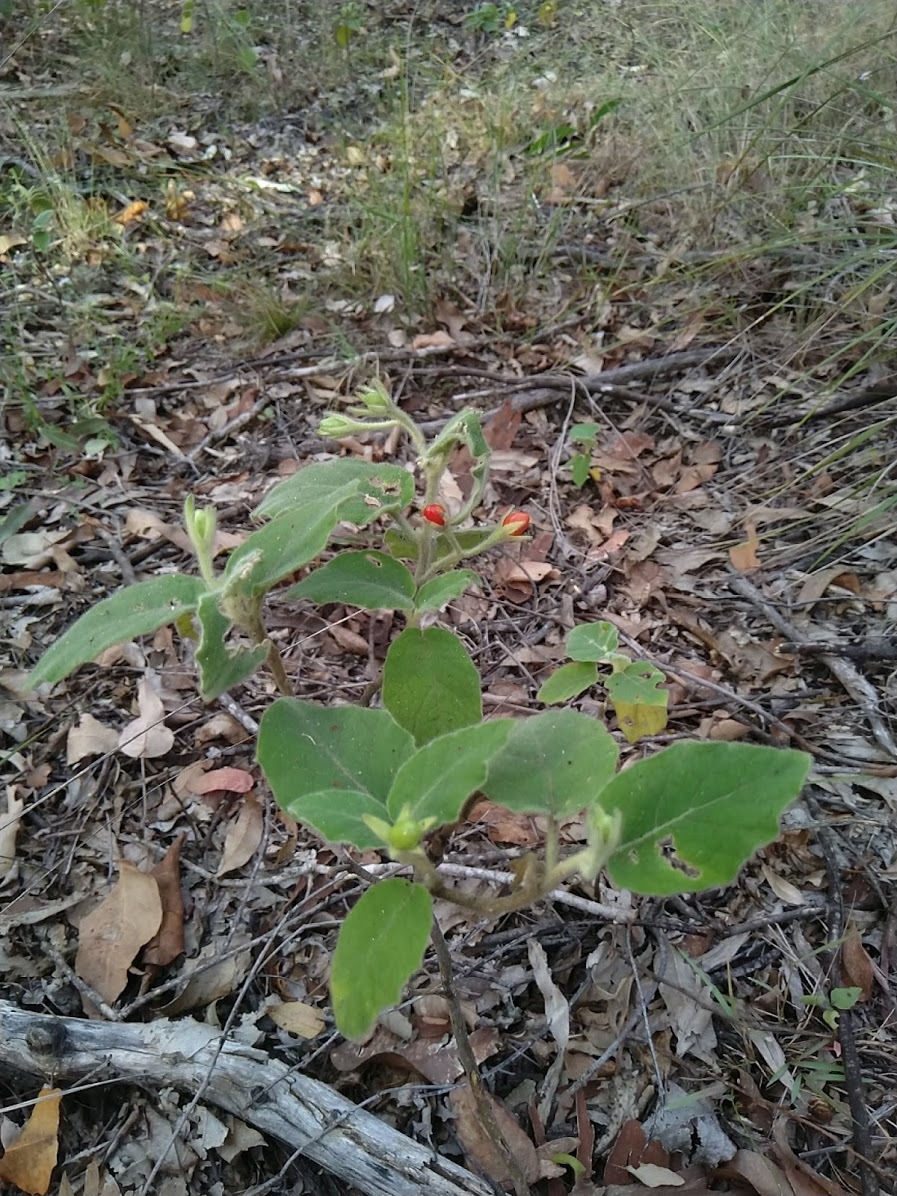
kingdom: Plantae
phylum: Tracheophyta
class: Magnoliopsida
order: Solanales
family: Solanaceae
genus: Solanum
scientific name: Solanum gympiense
